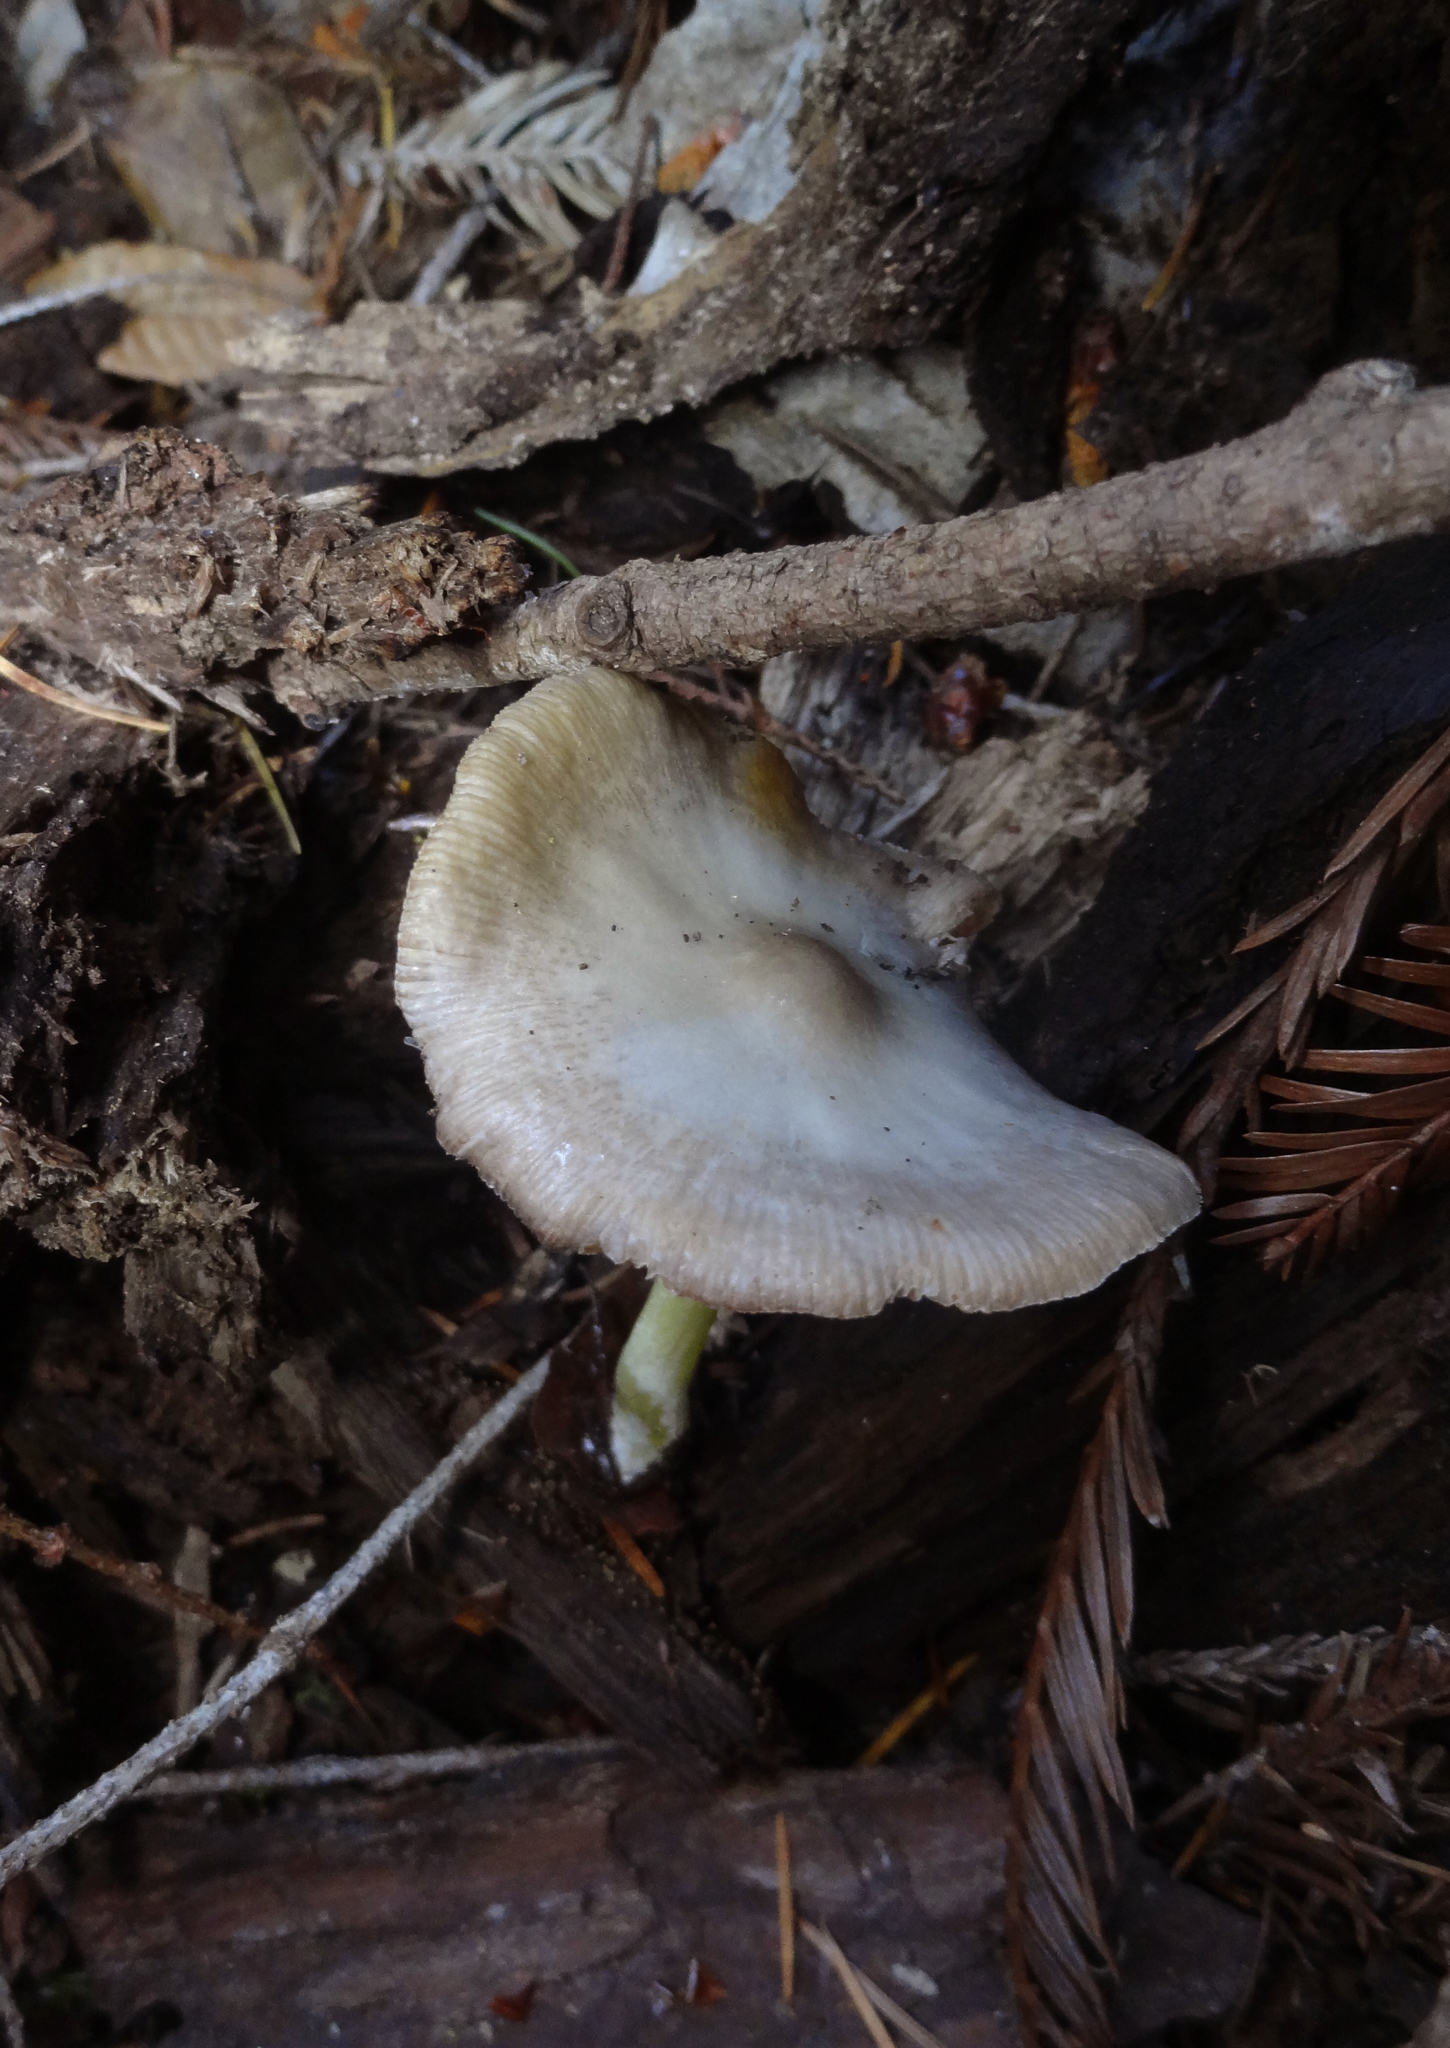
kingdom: Fungi
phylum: Basidiomycota
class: Agaricomycetes
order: Agaricales
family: Bolbitiaceae
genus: Bolbitius
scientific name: Bolbitius reticulatus
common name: Netted fieldcap
